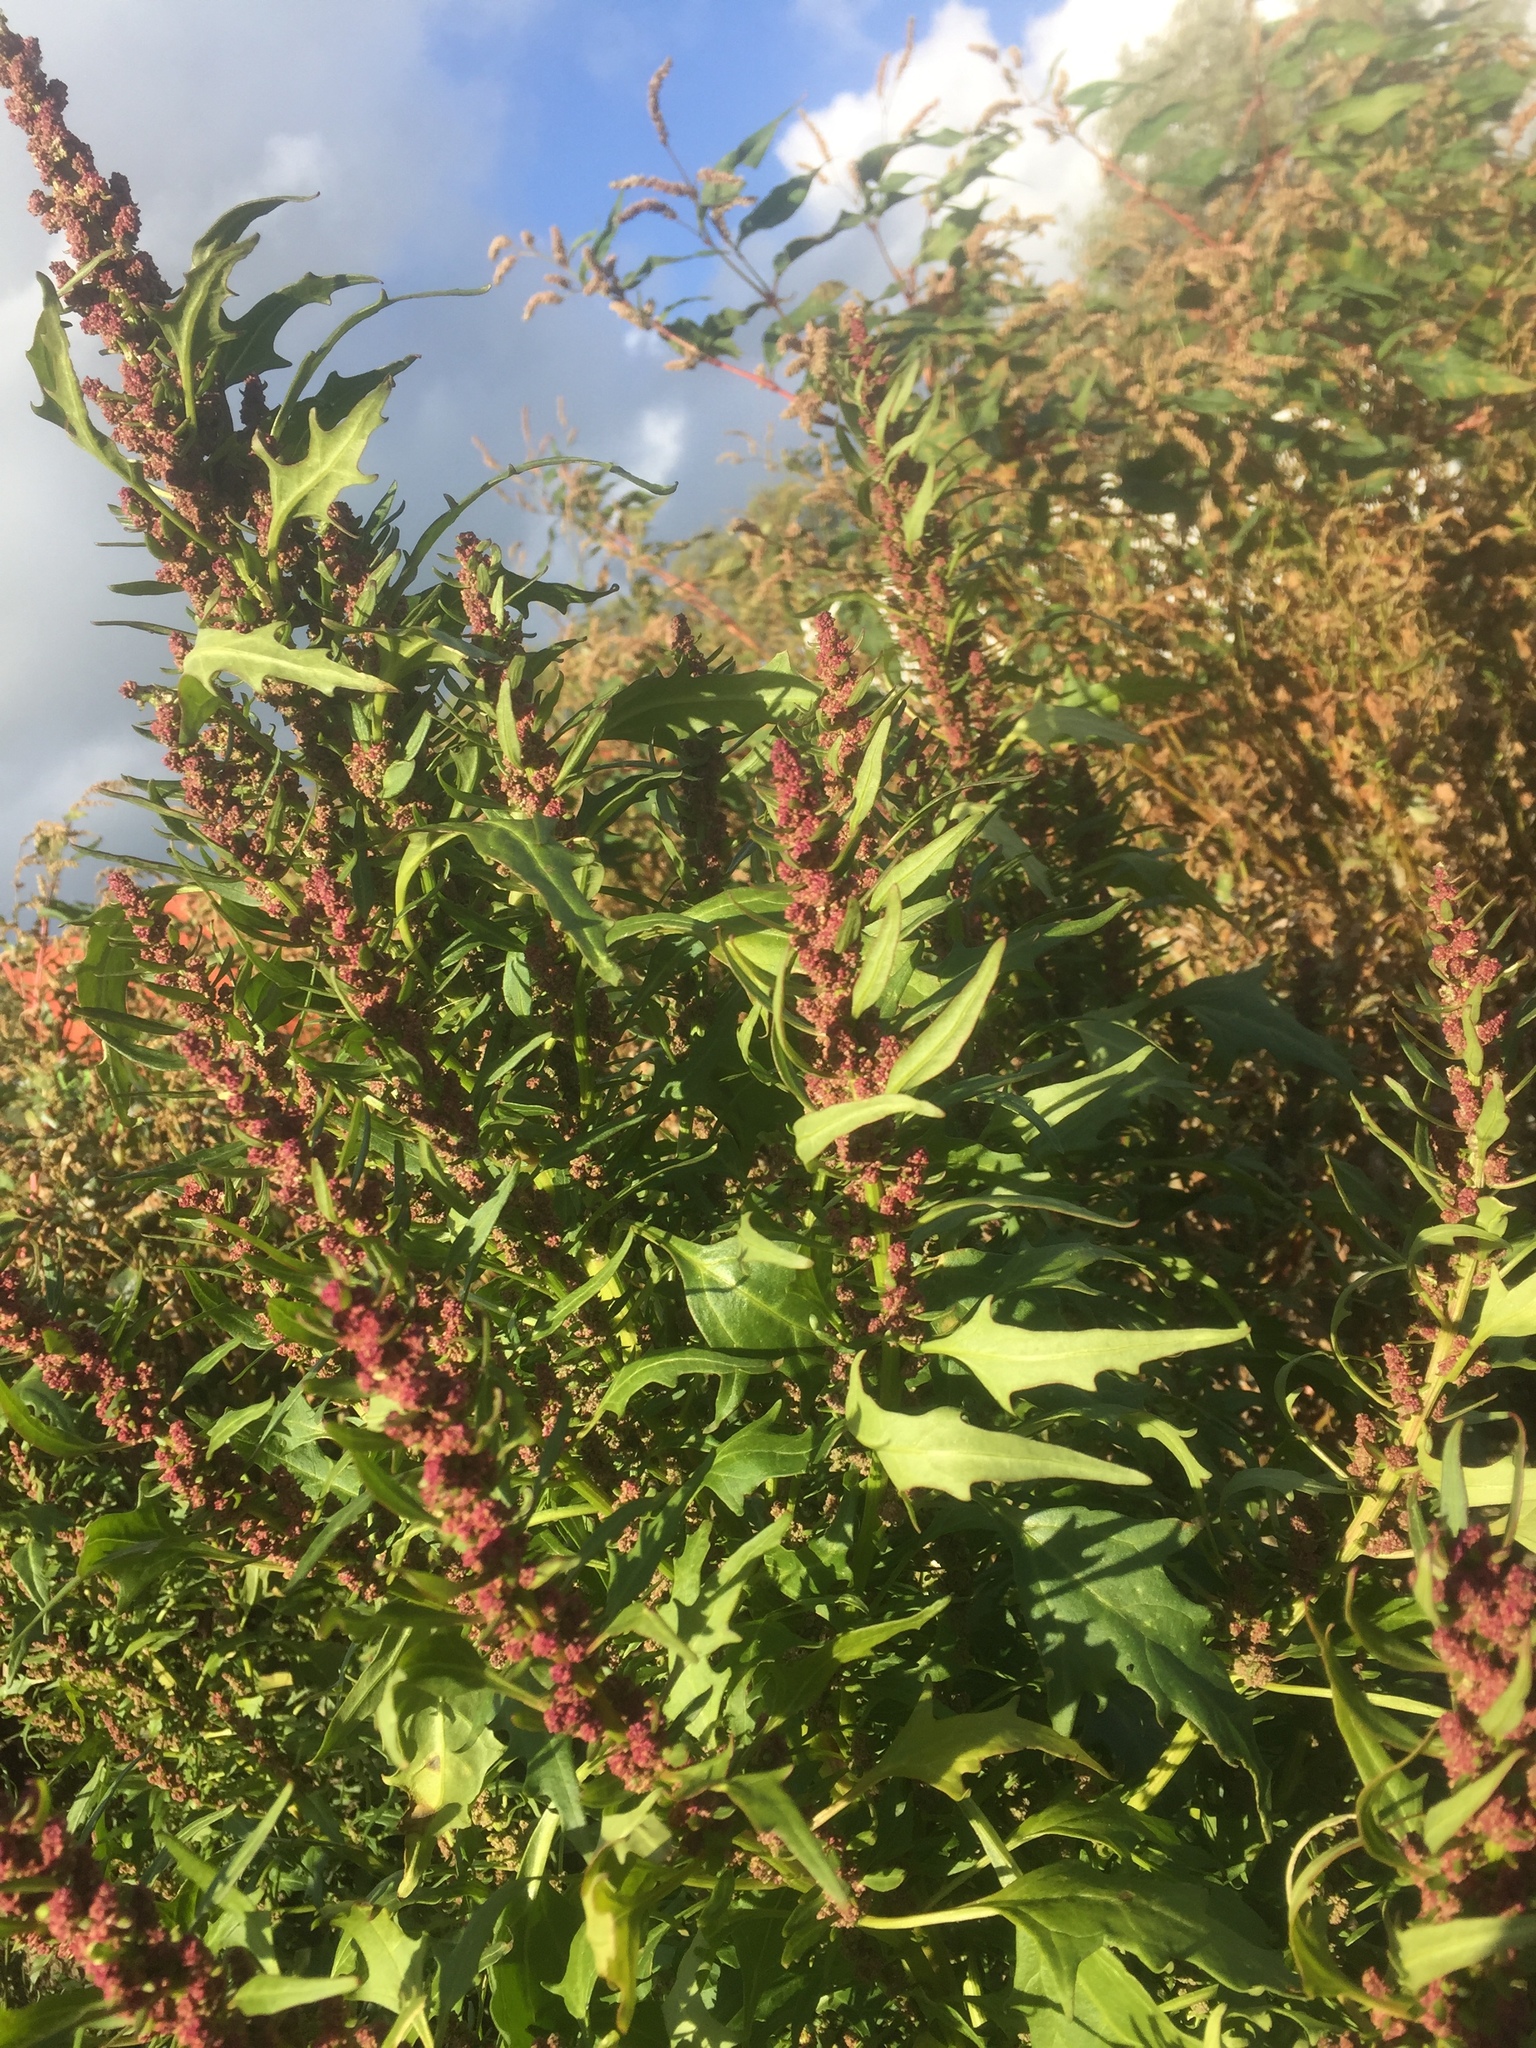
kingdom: Plantae
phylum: Tracheophyta
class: Magnoliopsida
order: Caryophyllales
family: Amaranthaceae
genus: Oxybasis
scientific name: Oxybasis rubra
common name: Red goosefoot
